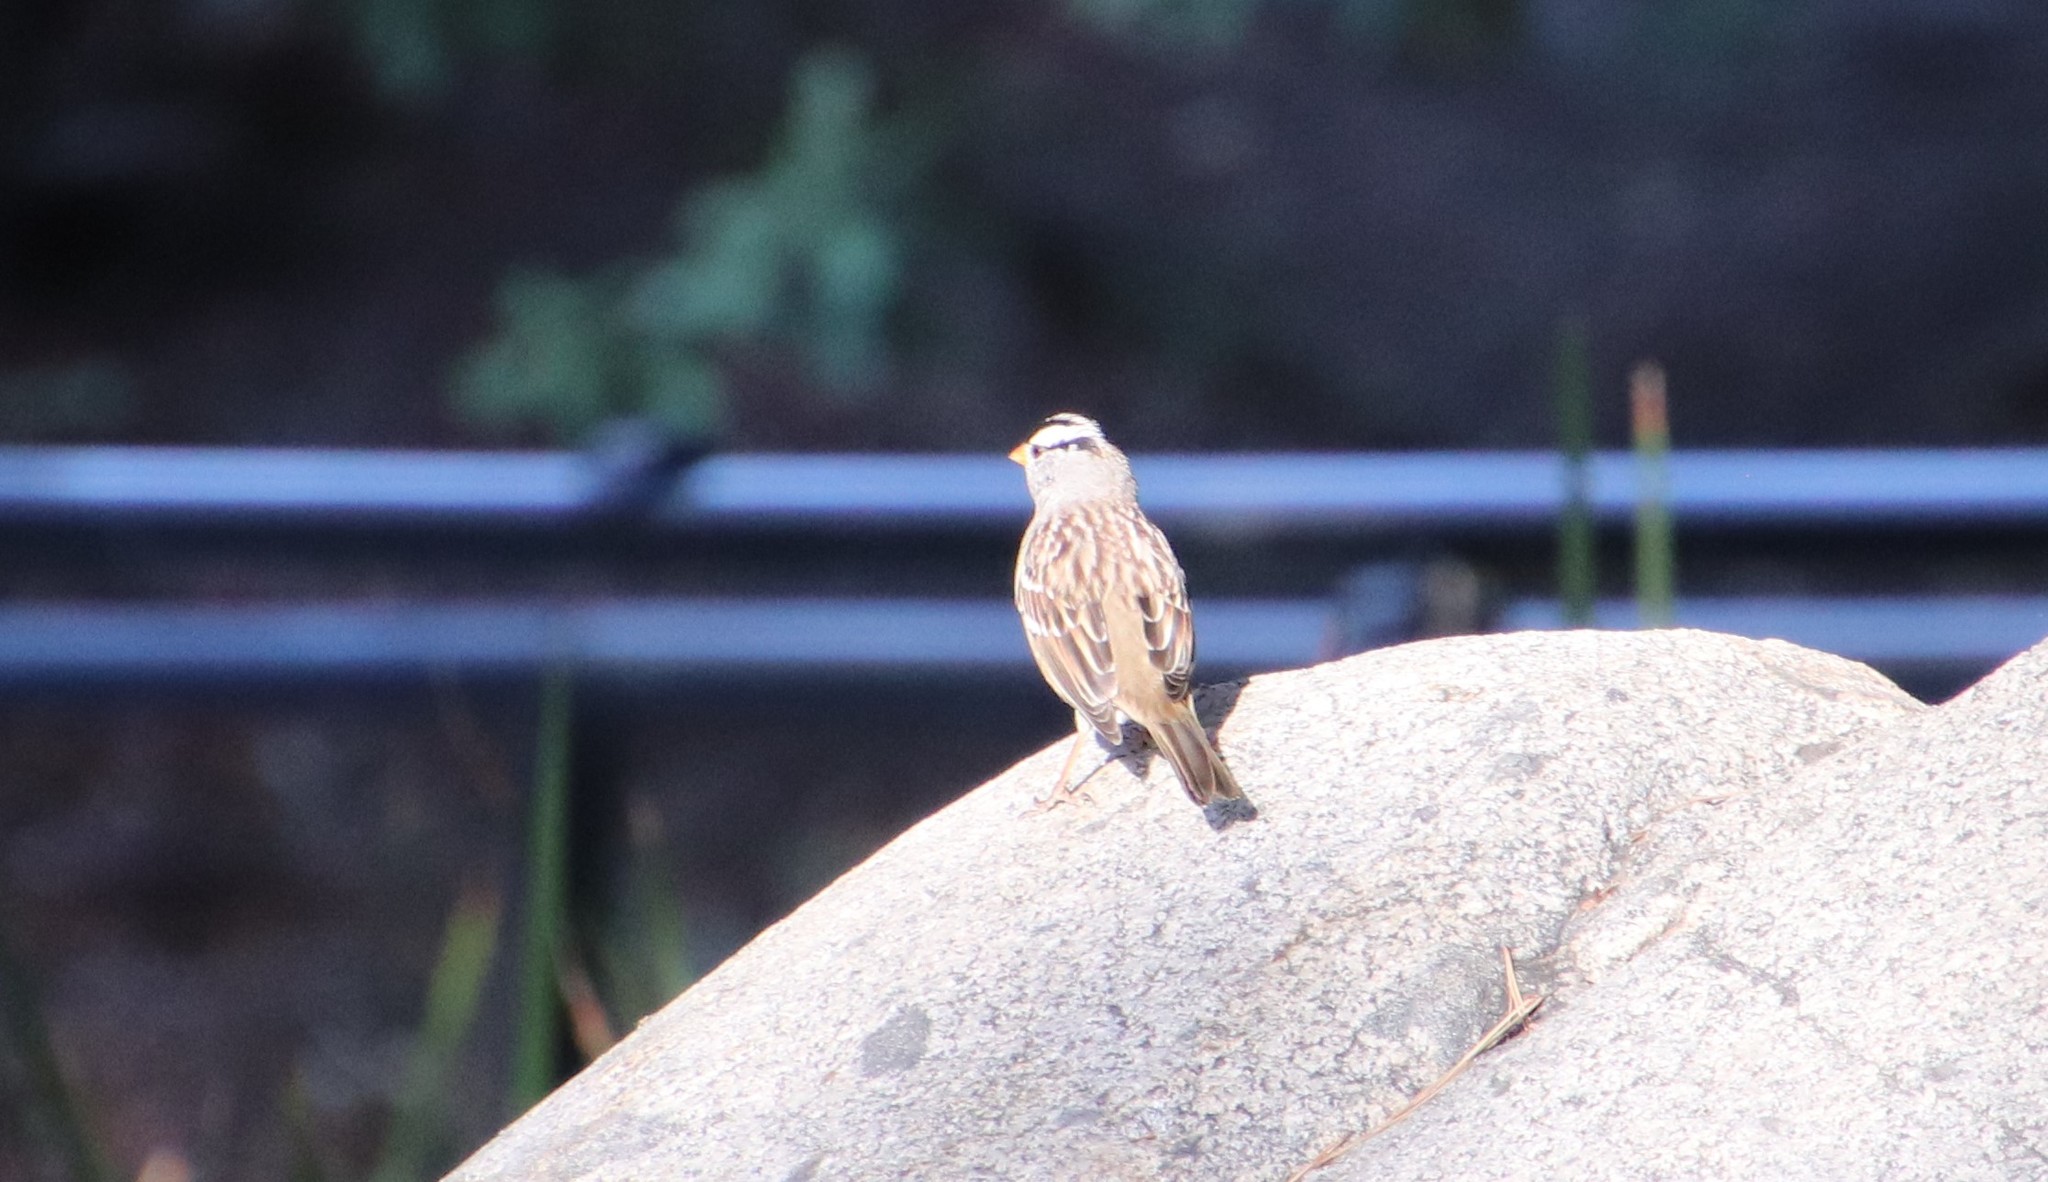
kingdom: Animalia
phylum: Chordata
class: Aves
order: Passeriformes
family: Passerellidae
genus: Zonotrichia
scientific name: Zonotrichia leucophrys
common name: White-crowned sparrow
